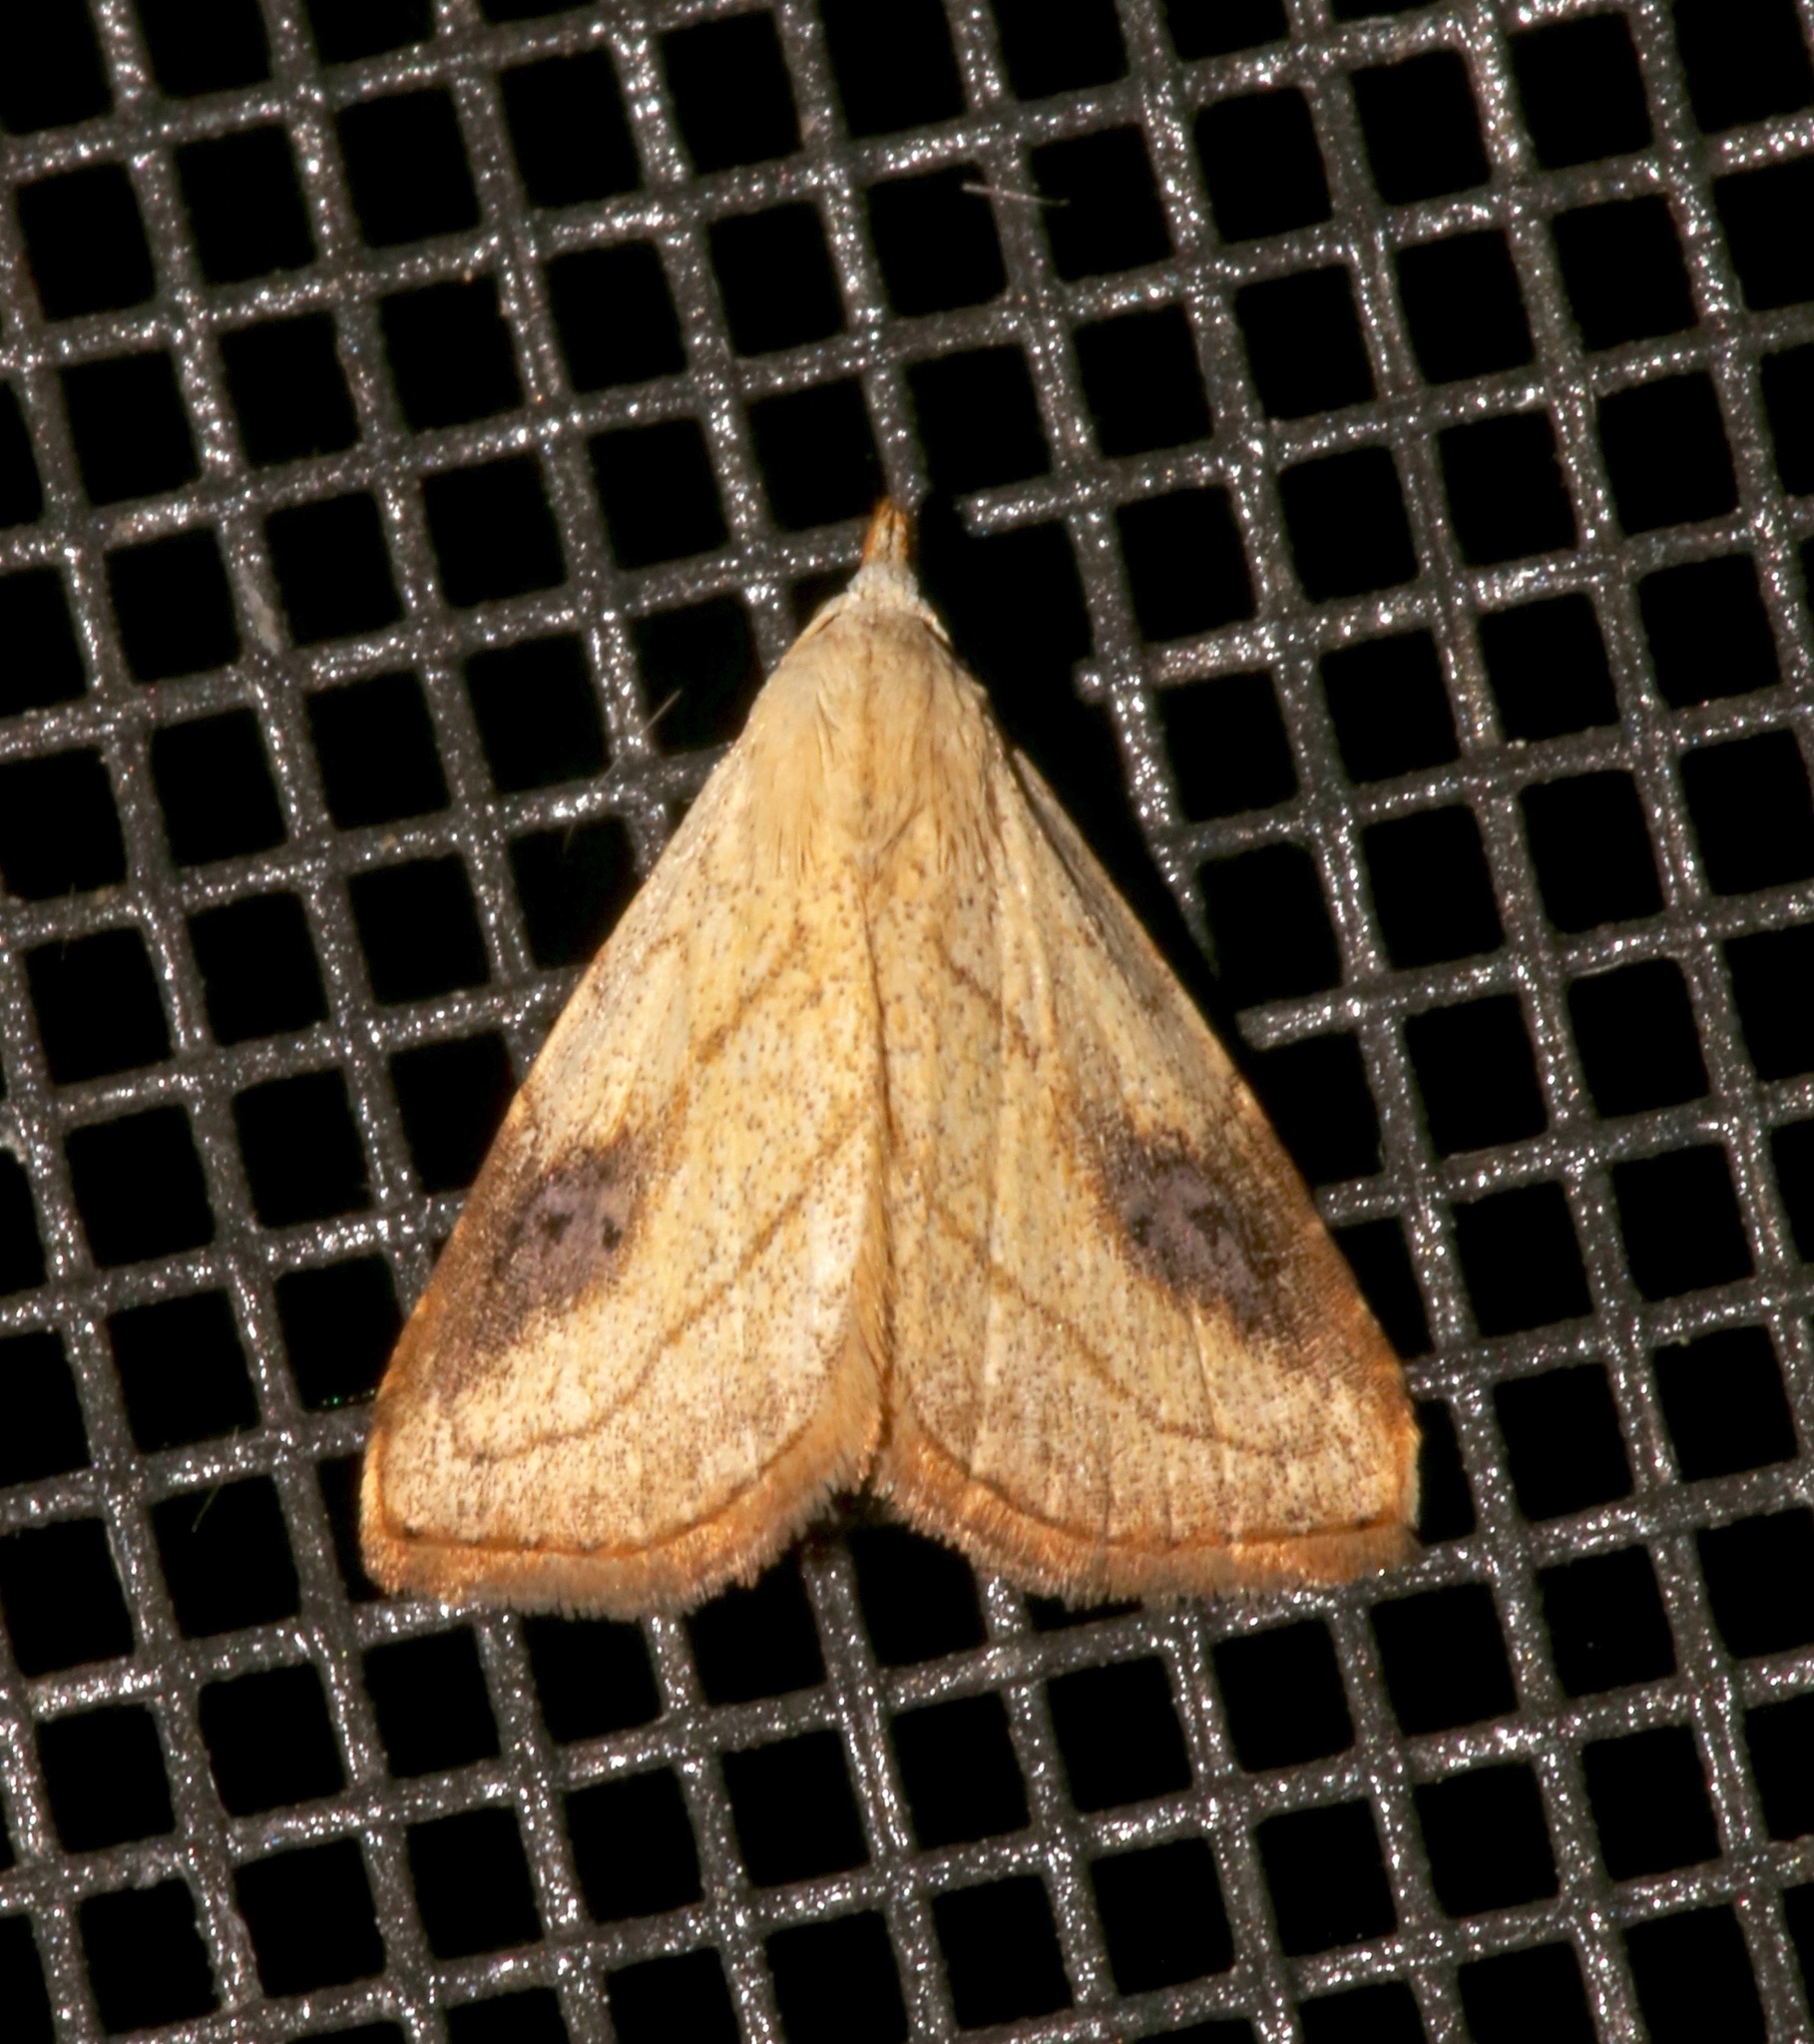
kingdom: Animalia
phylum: Arthropoda
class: Insecta
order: Lepidoptera
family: Erebidae
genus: Rivula
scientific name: Rivula propinqualis
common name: Spotted grass moth
